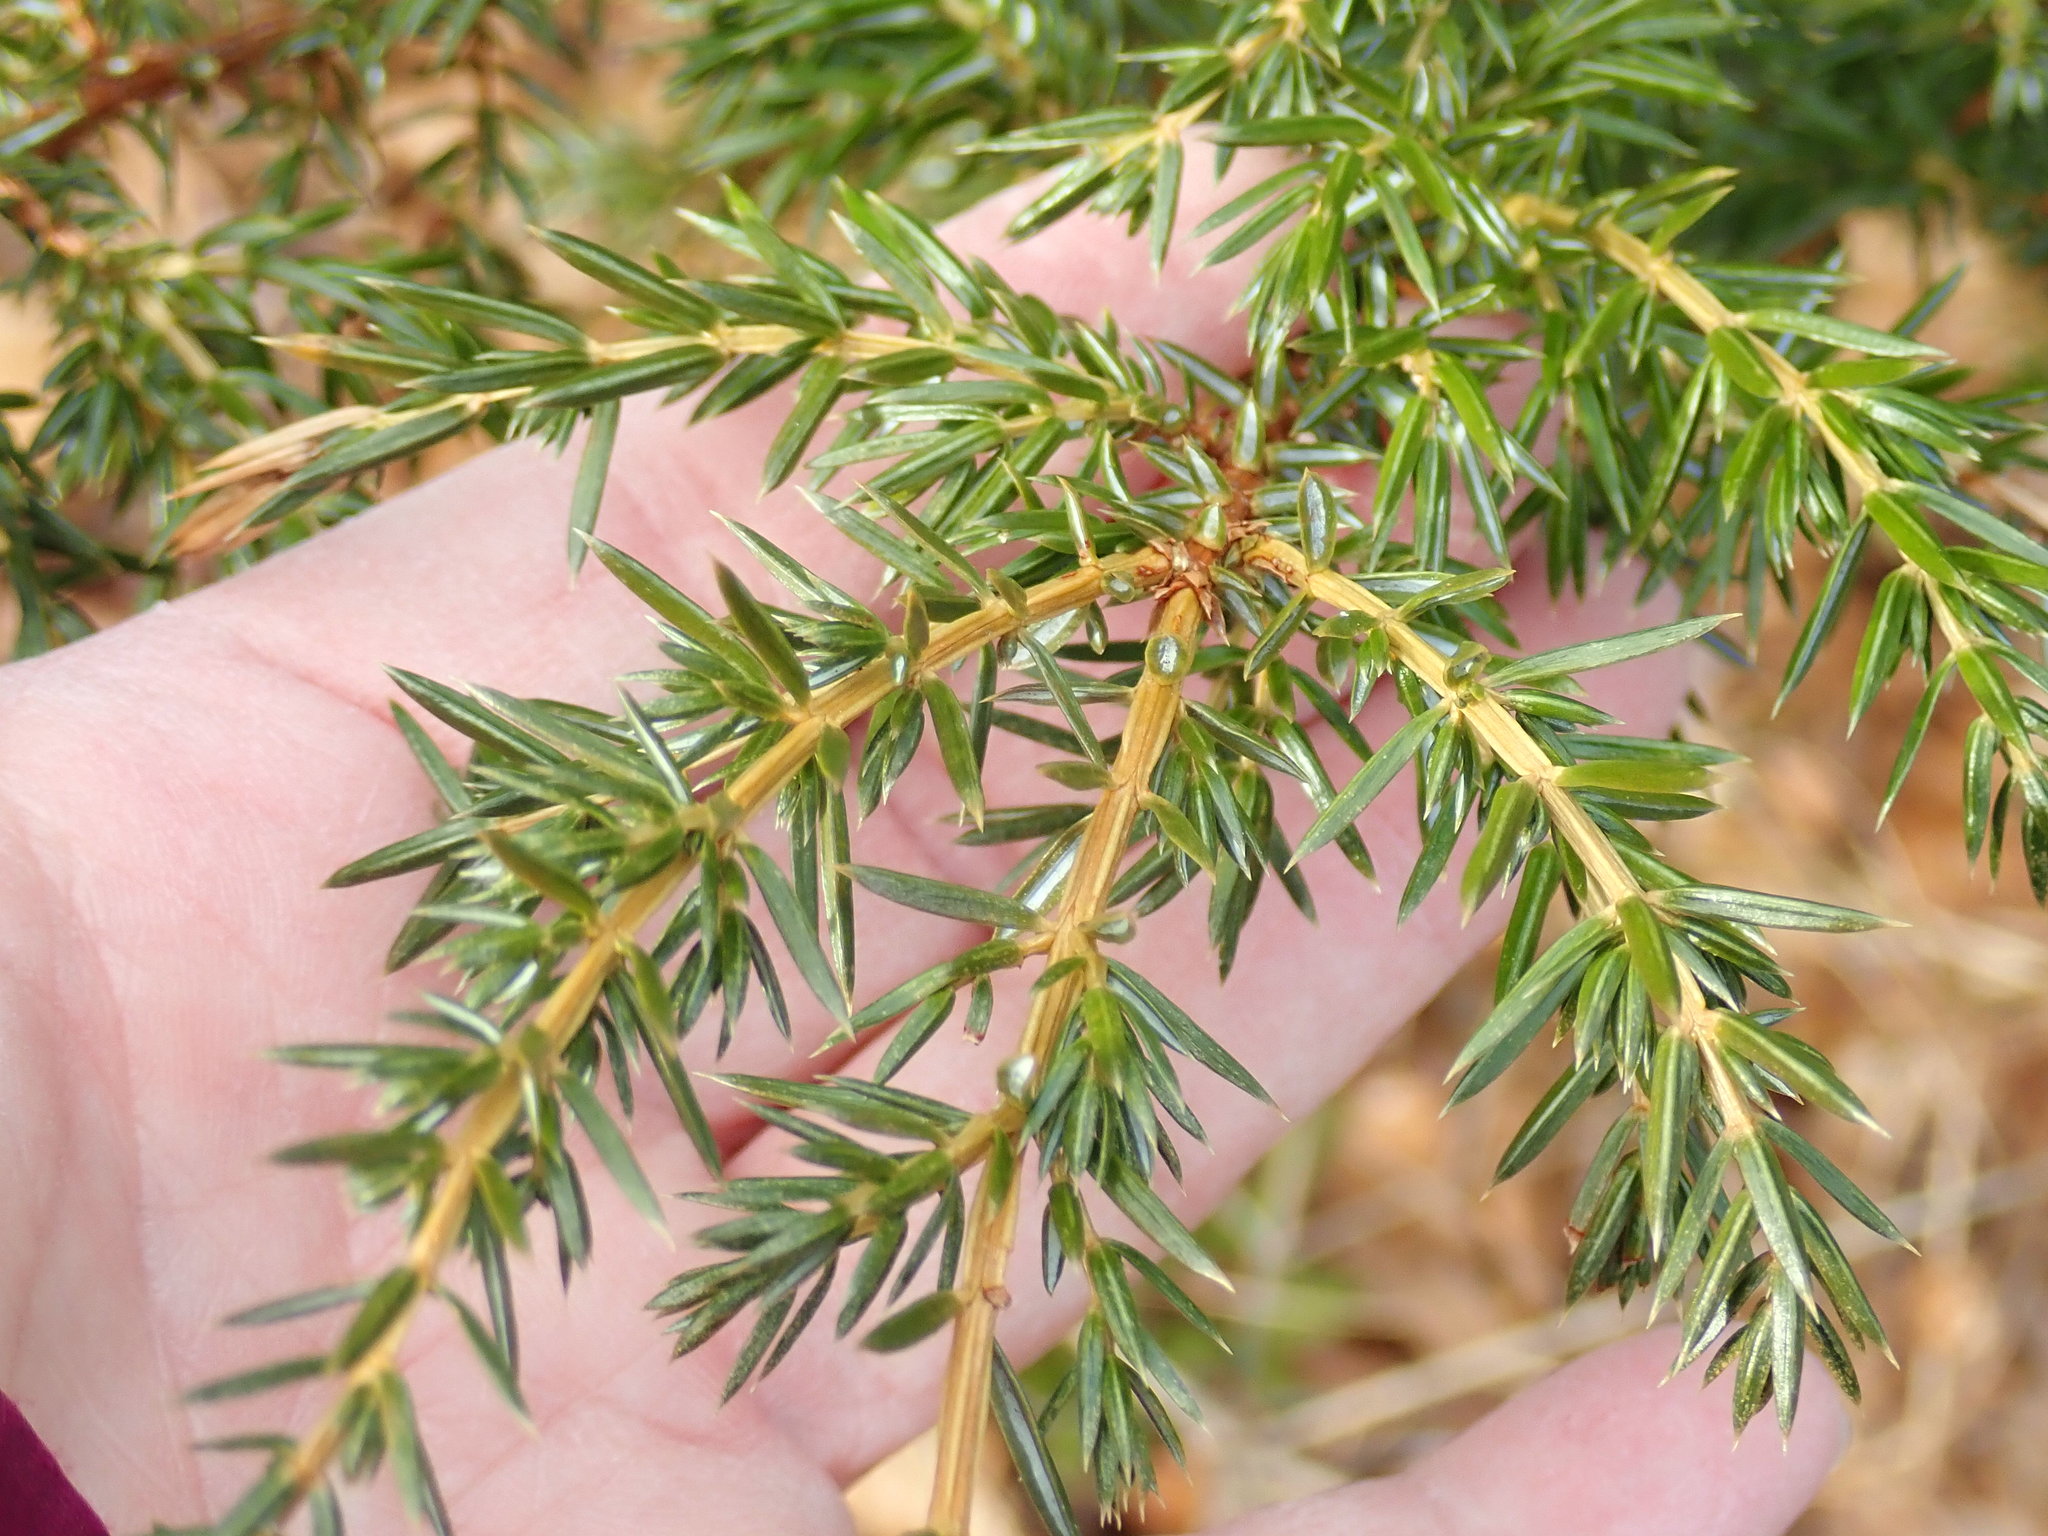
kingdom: Plantae
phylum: Tracheophyta
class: Pinopsida
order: Pinales
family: Cupressaceae
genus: Juniperus
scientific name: Juniperus communis
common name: Common juniper
